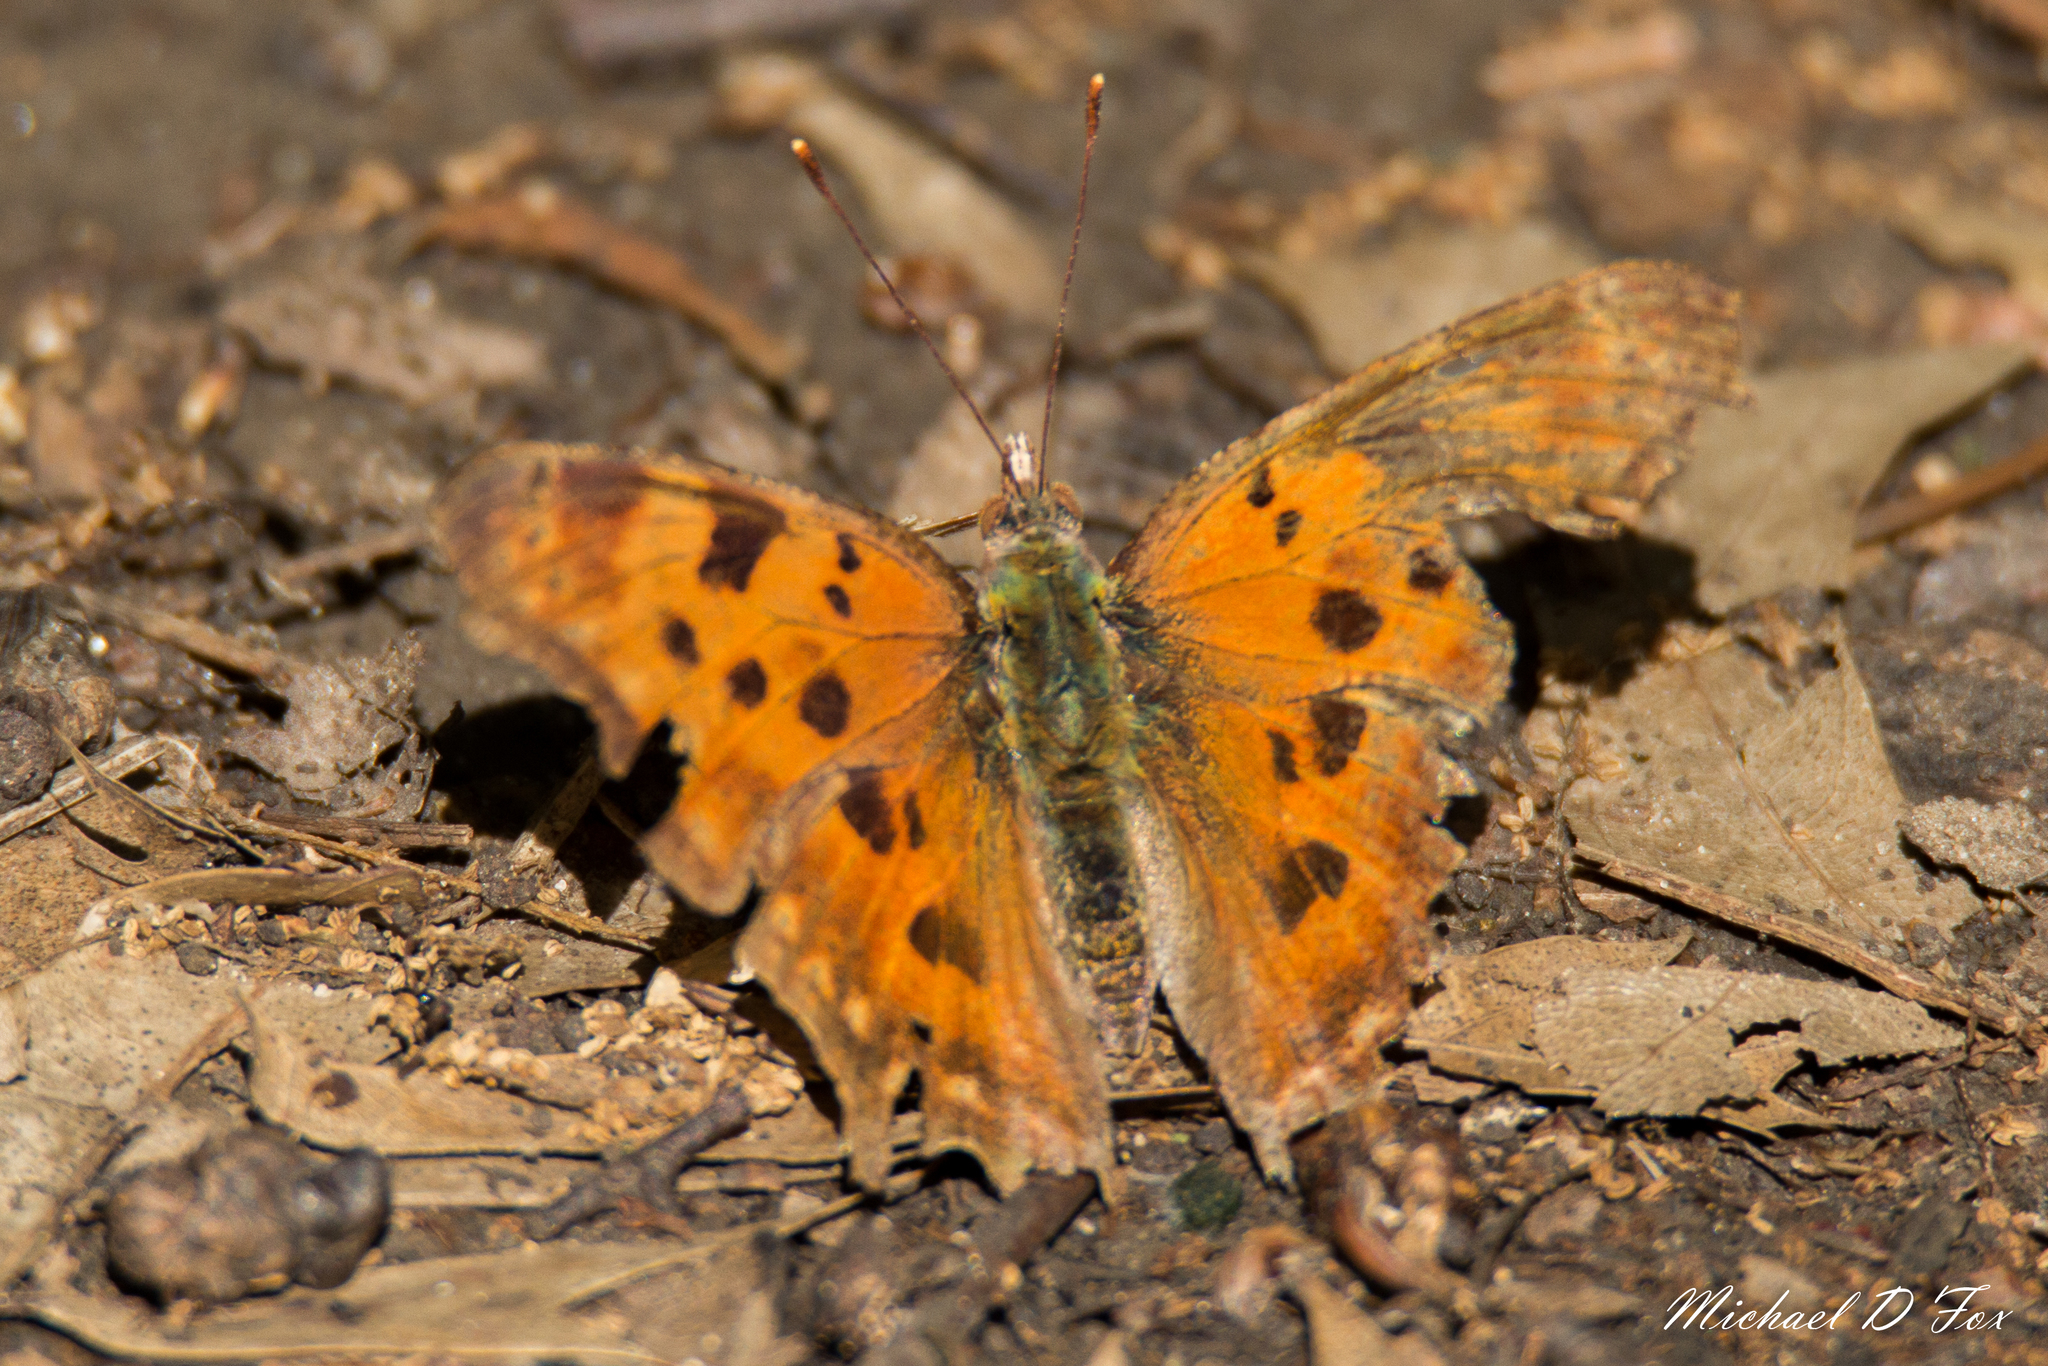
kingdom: Animalia
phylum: Arthropoda
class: Insecta
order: Lepidoptera
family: Nymphalidae
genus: Polygonia
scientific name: Polygonia comma
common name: Eastern comma
